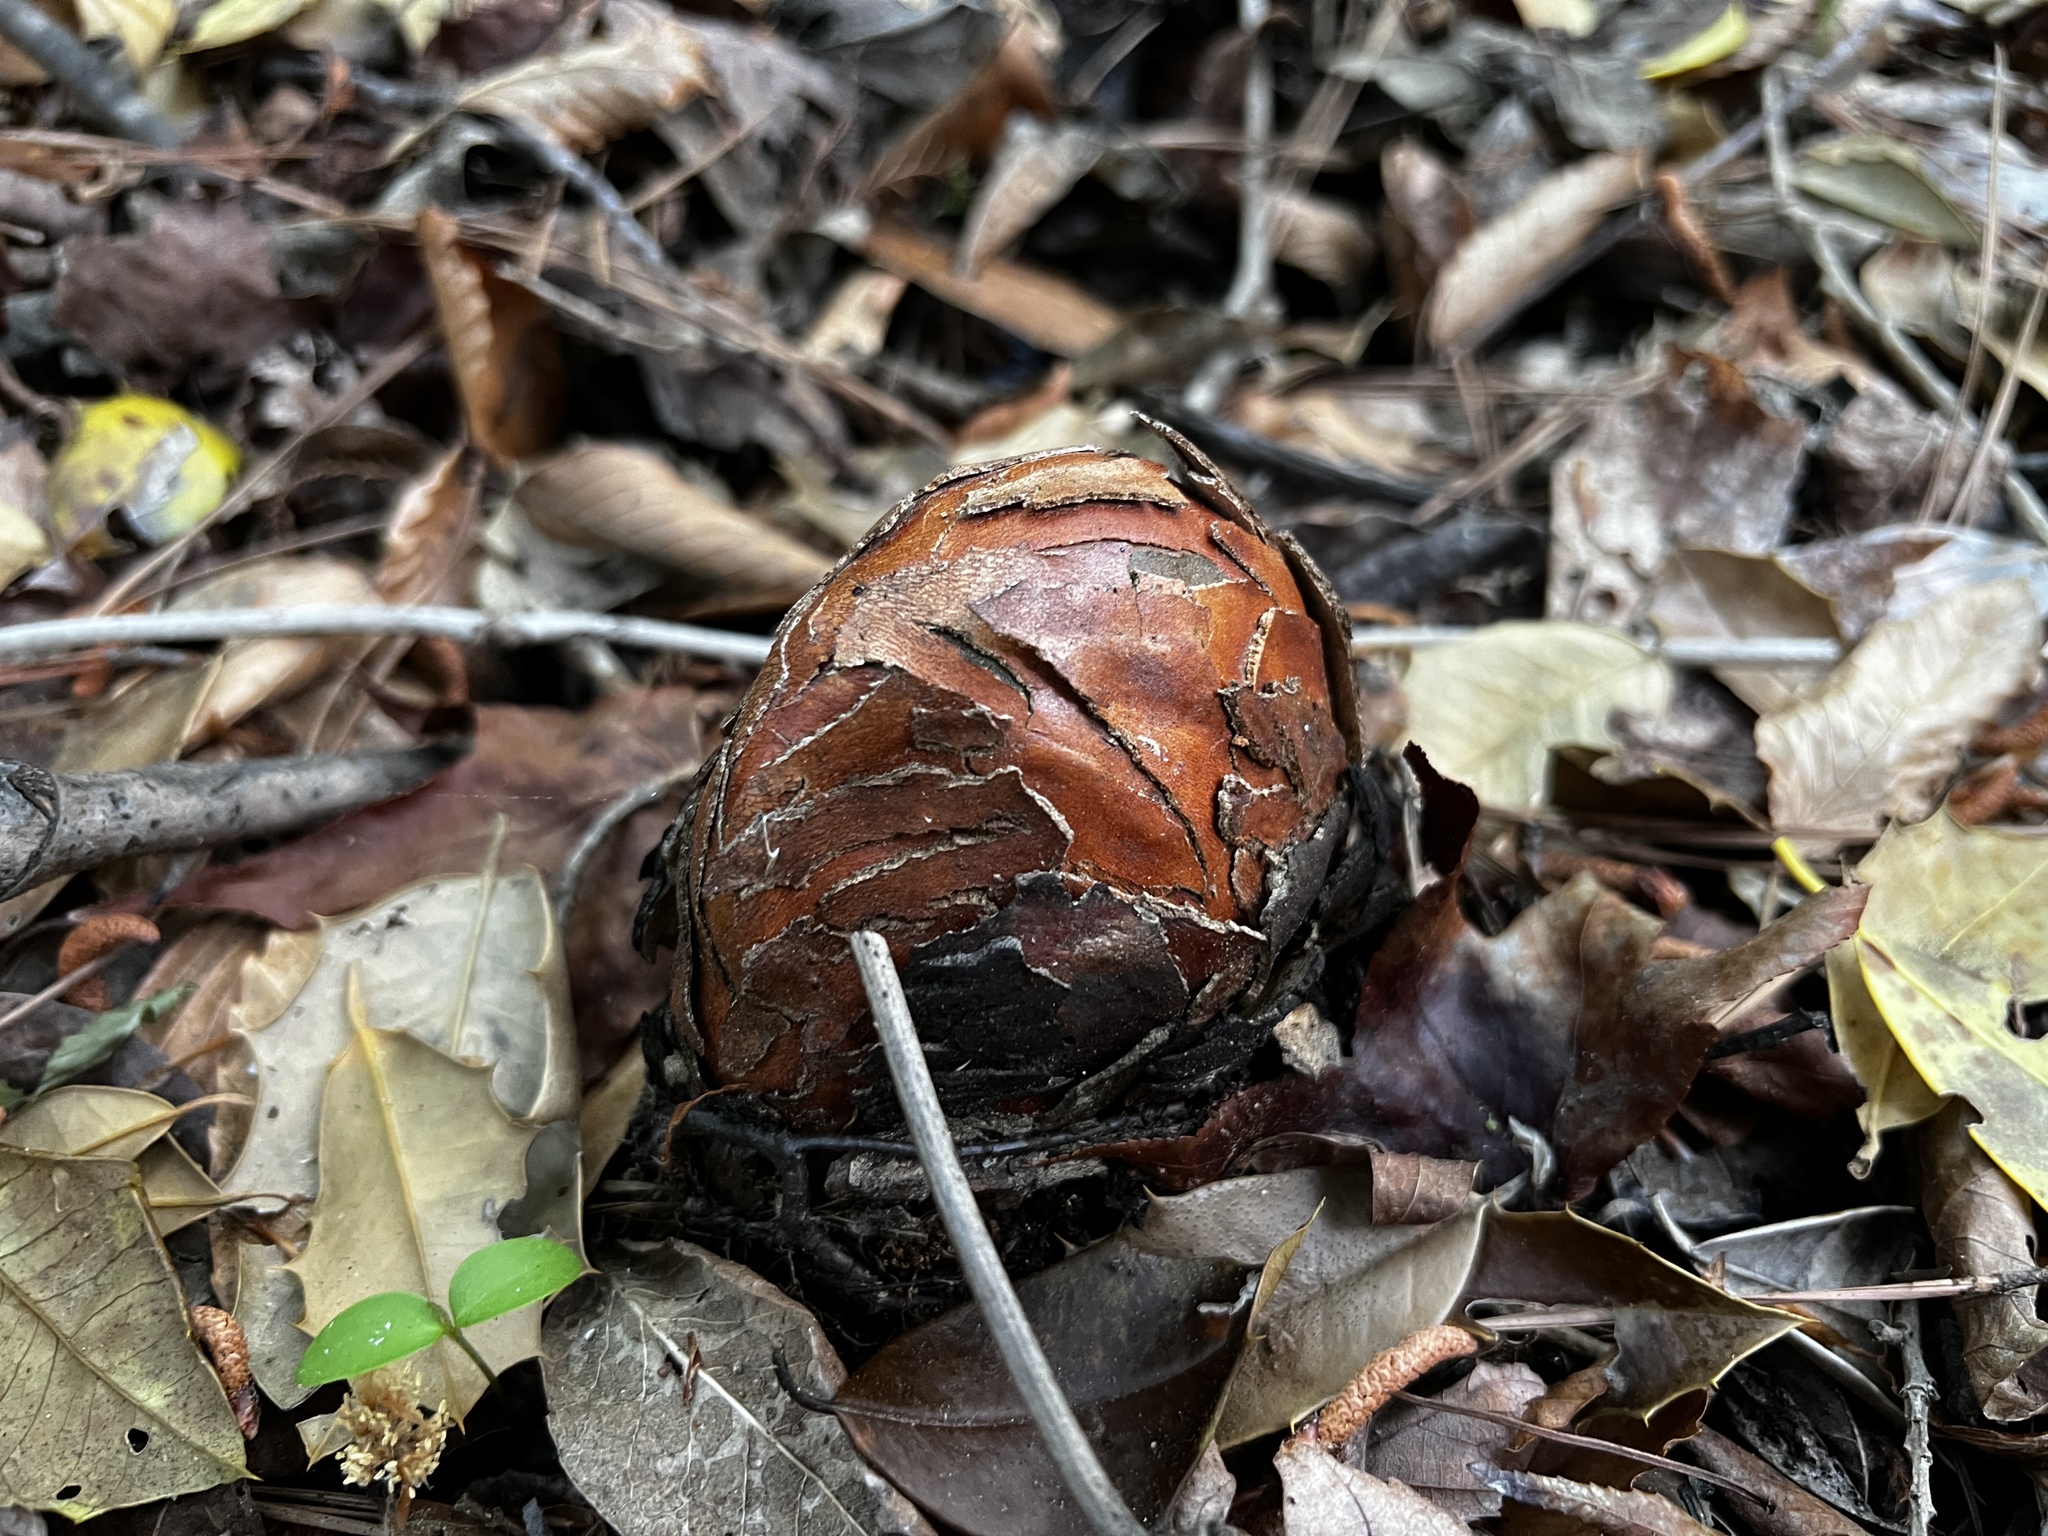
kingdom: Plantae
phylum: Tracheophyta
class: Pinopsida
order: Pinales
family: Cupressaceae
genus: Taxodium
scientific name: Taxodium distichum
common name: Bald cypress
